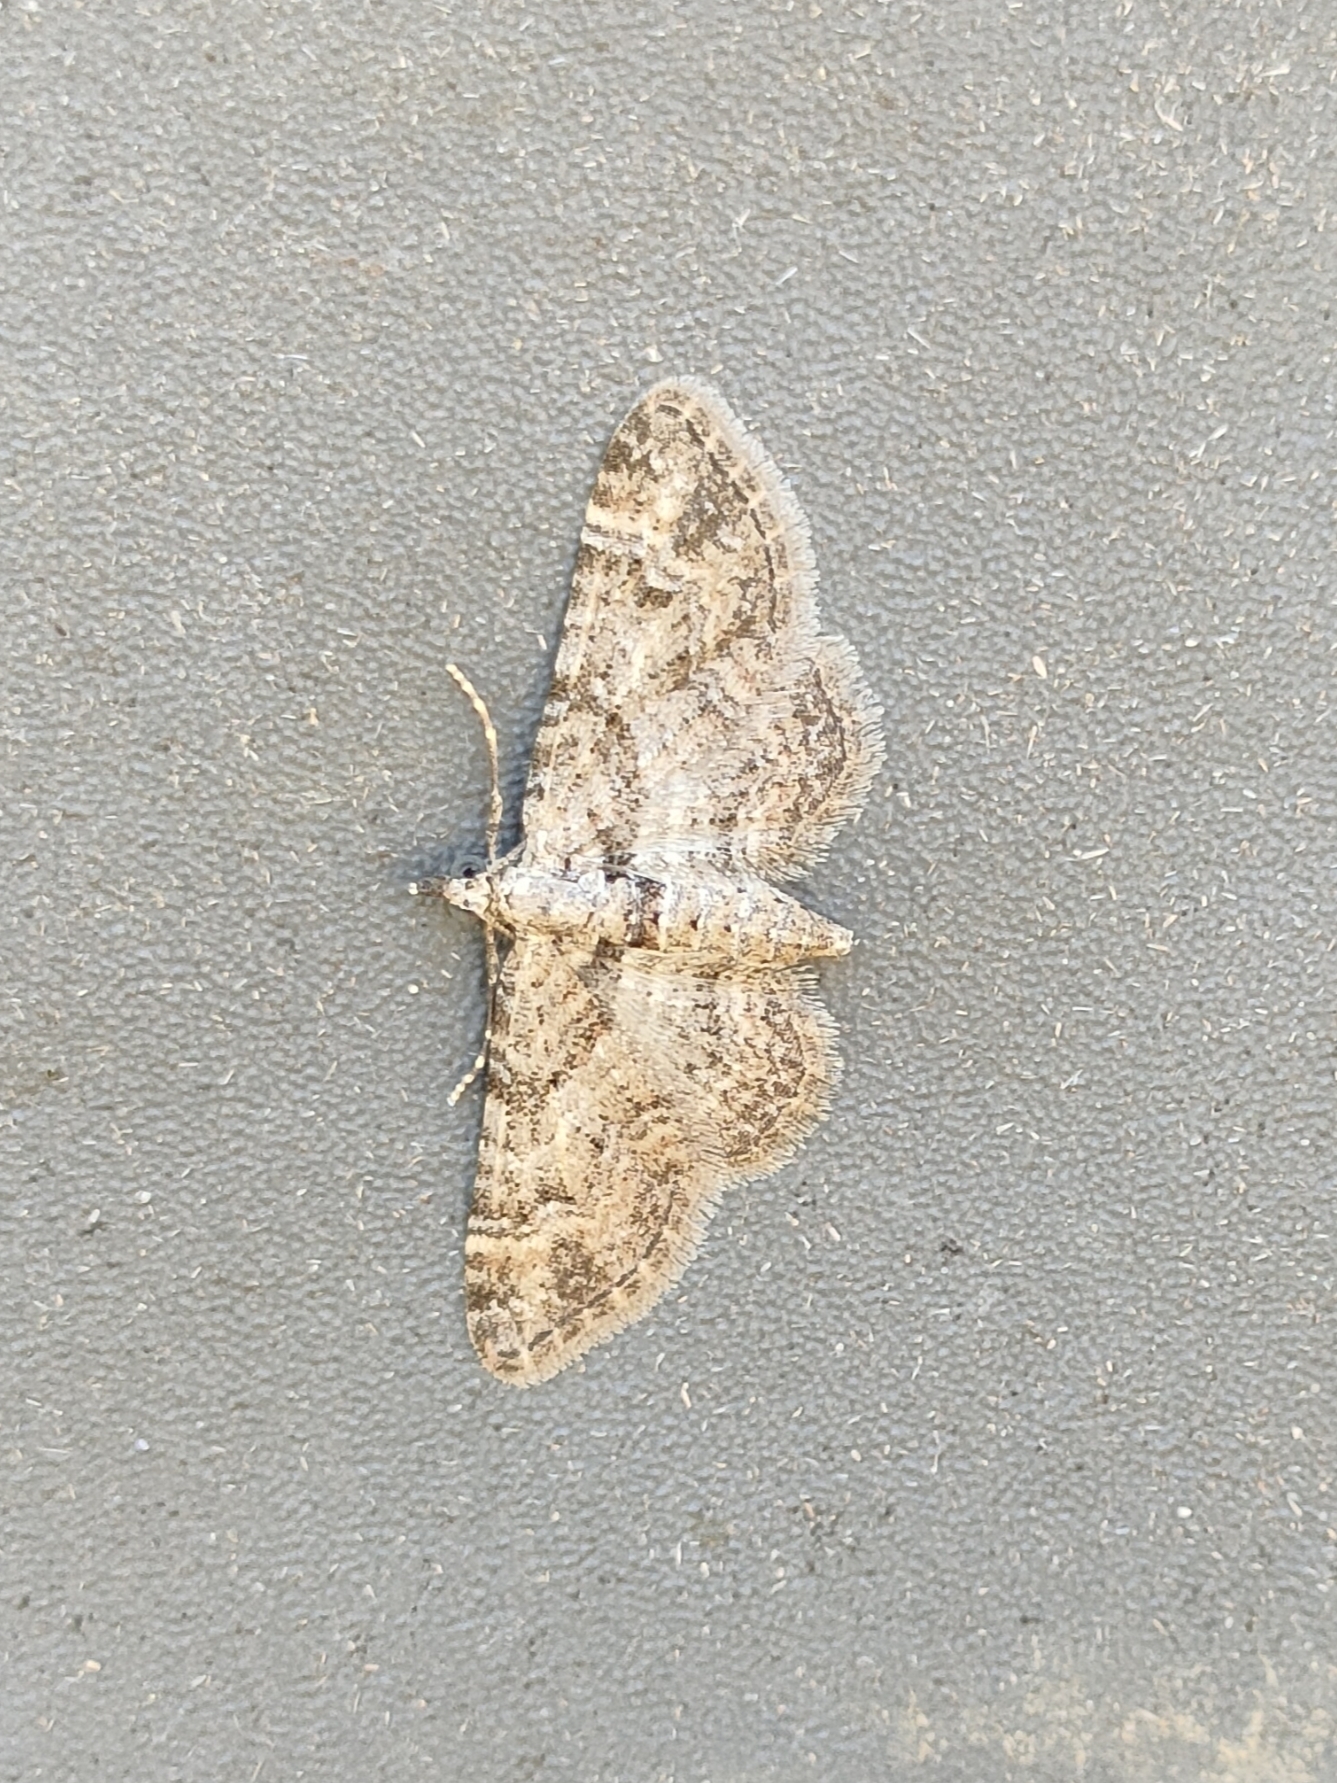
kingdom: Animalia
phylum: Arthropoda
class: Insecta
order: Lepidoptera
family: Geometridae
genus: Gymnoscelis
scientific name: Gymnoscelis rufifasciata
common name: Double-striped pug
